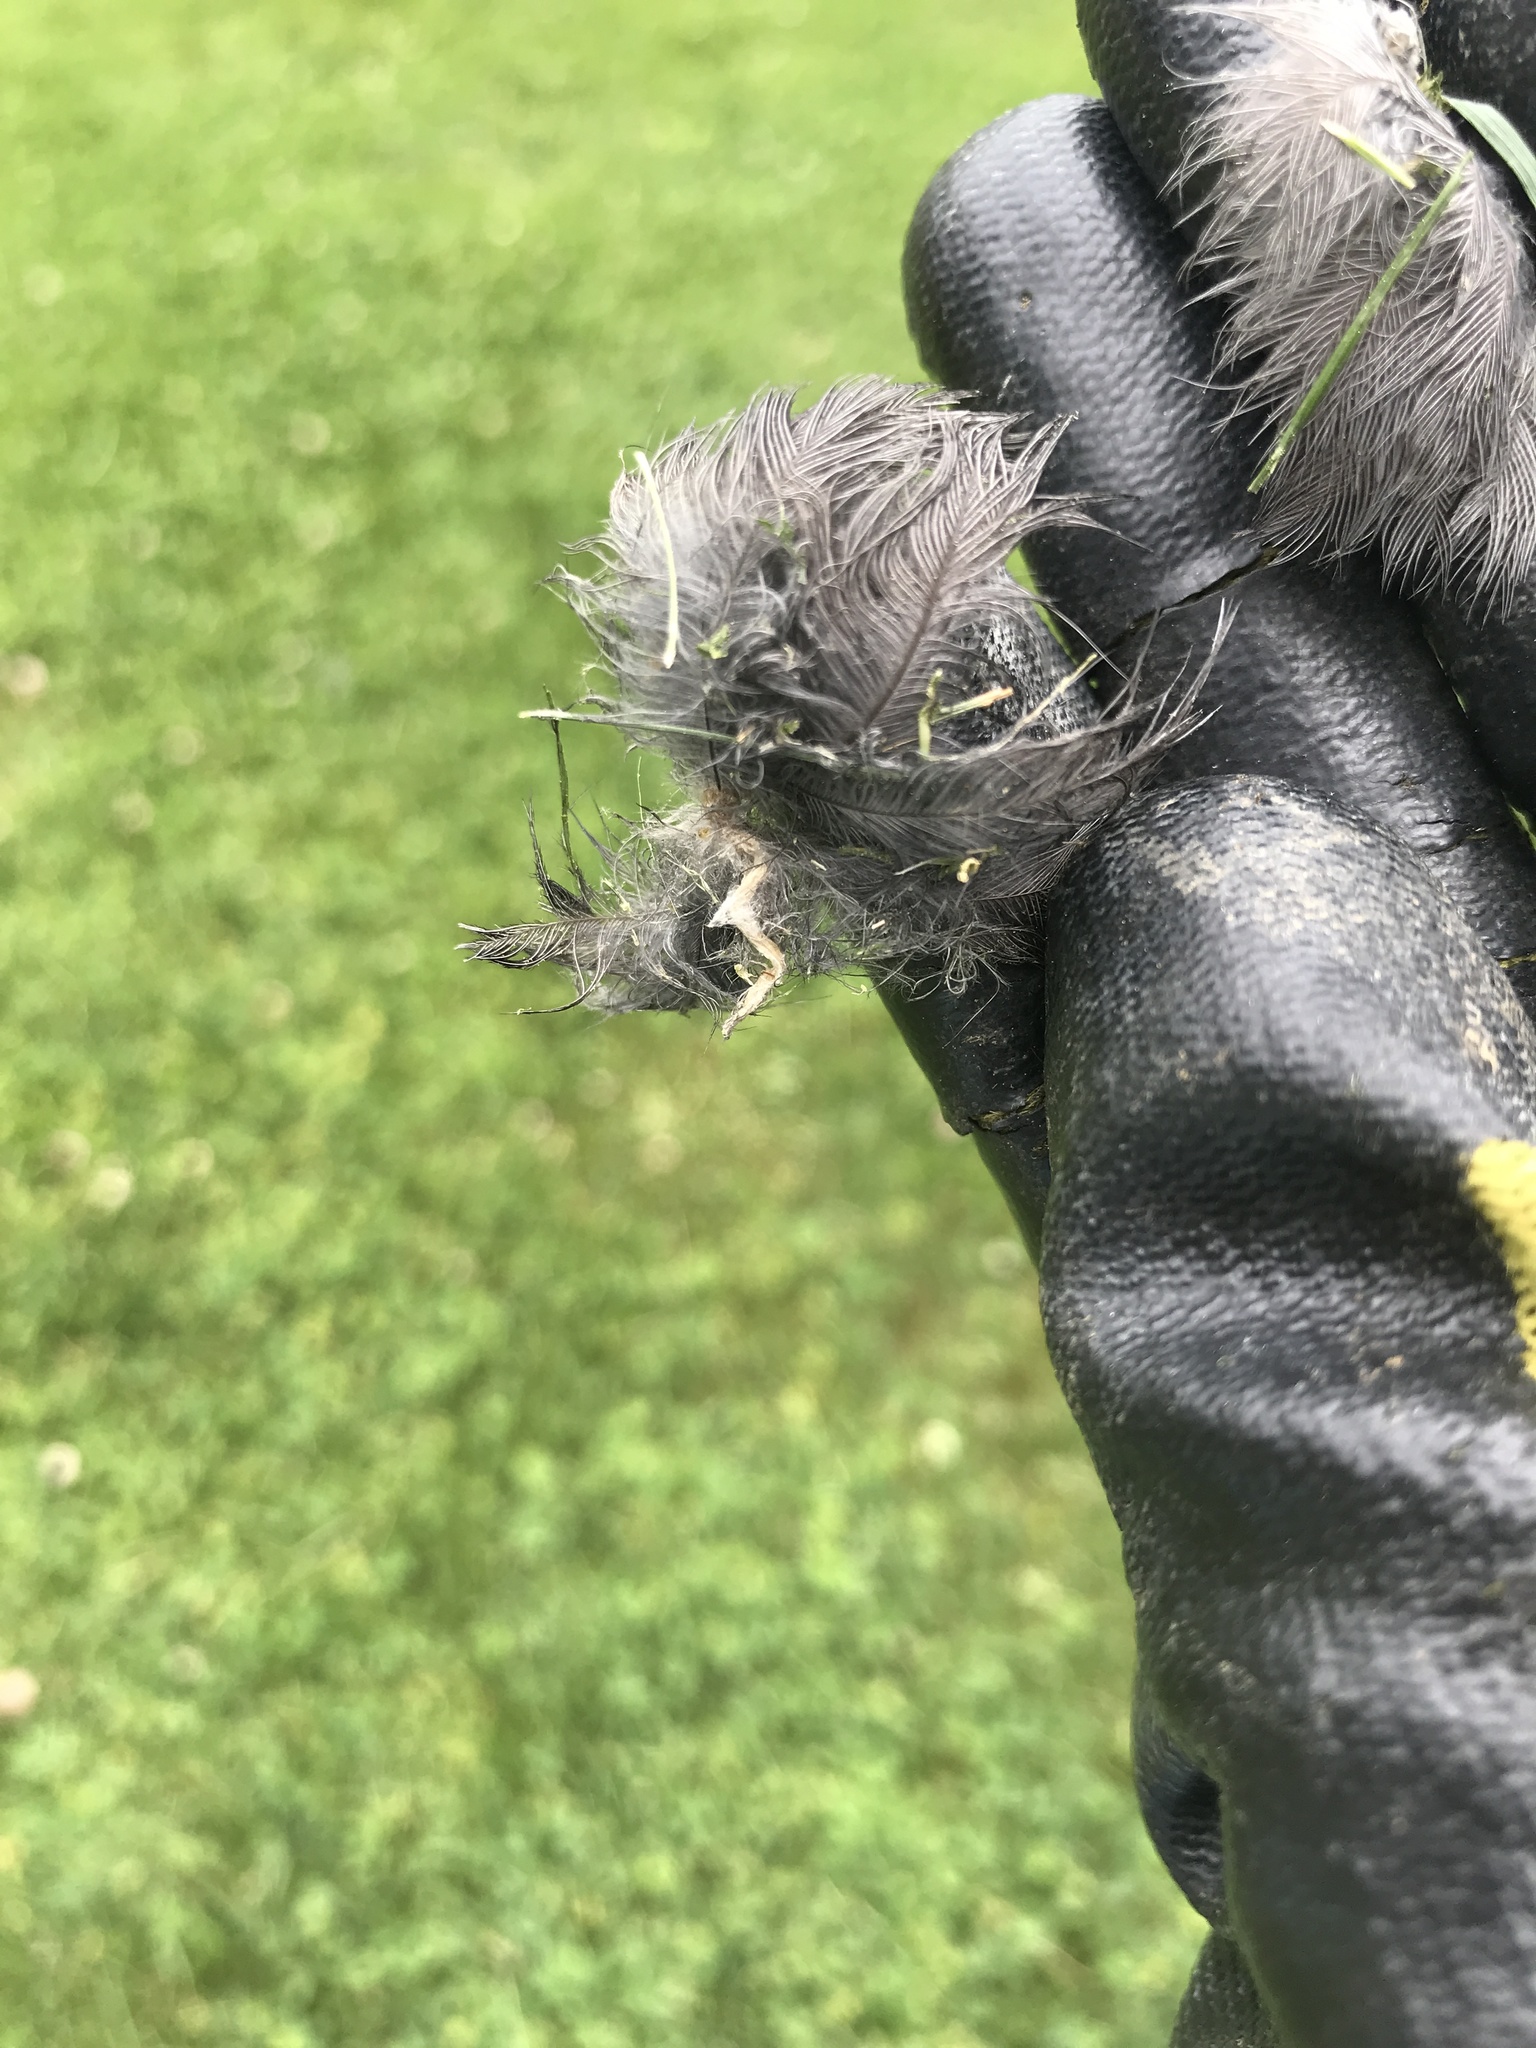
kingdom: Animalia
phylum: Chordata
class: Aves
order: Passeriformes
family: Mimidae
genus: Dumetella
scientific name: Dumetella carolinensis
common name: Gray catbird
